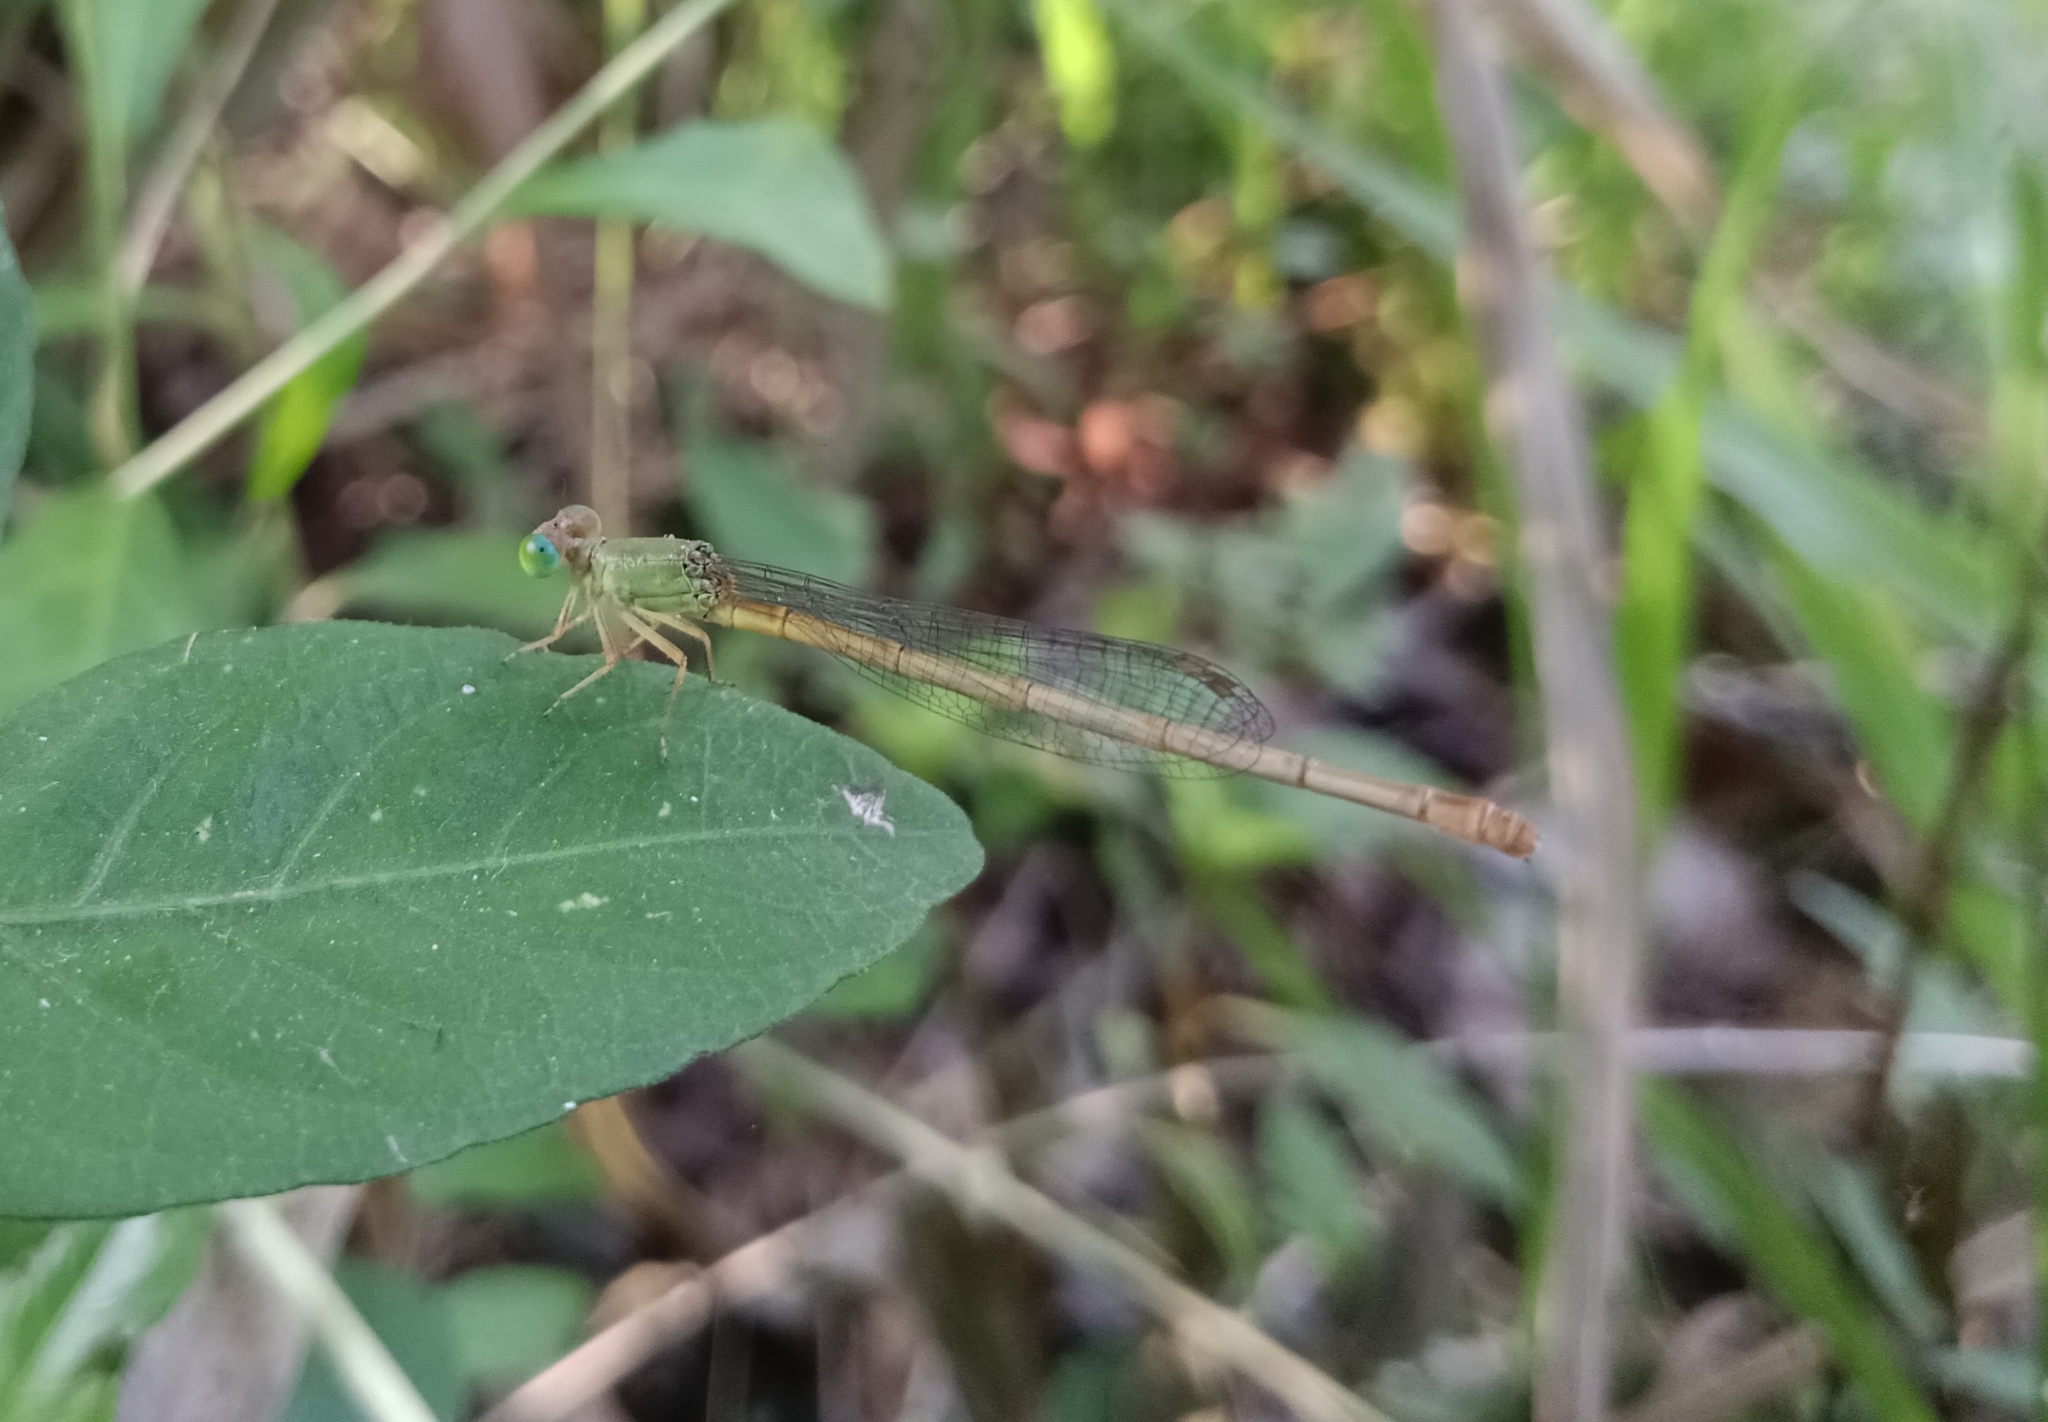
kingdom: Animalia
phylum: Arthropoda
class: Insecta
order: Odonata
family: Coenagrionidae
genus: Ceriagrion
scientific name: Ceriagrion coromandelianum
